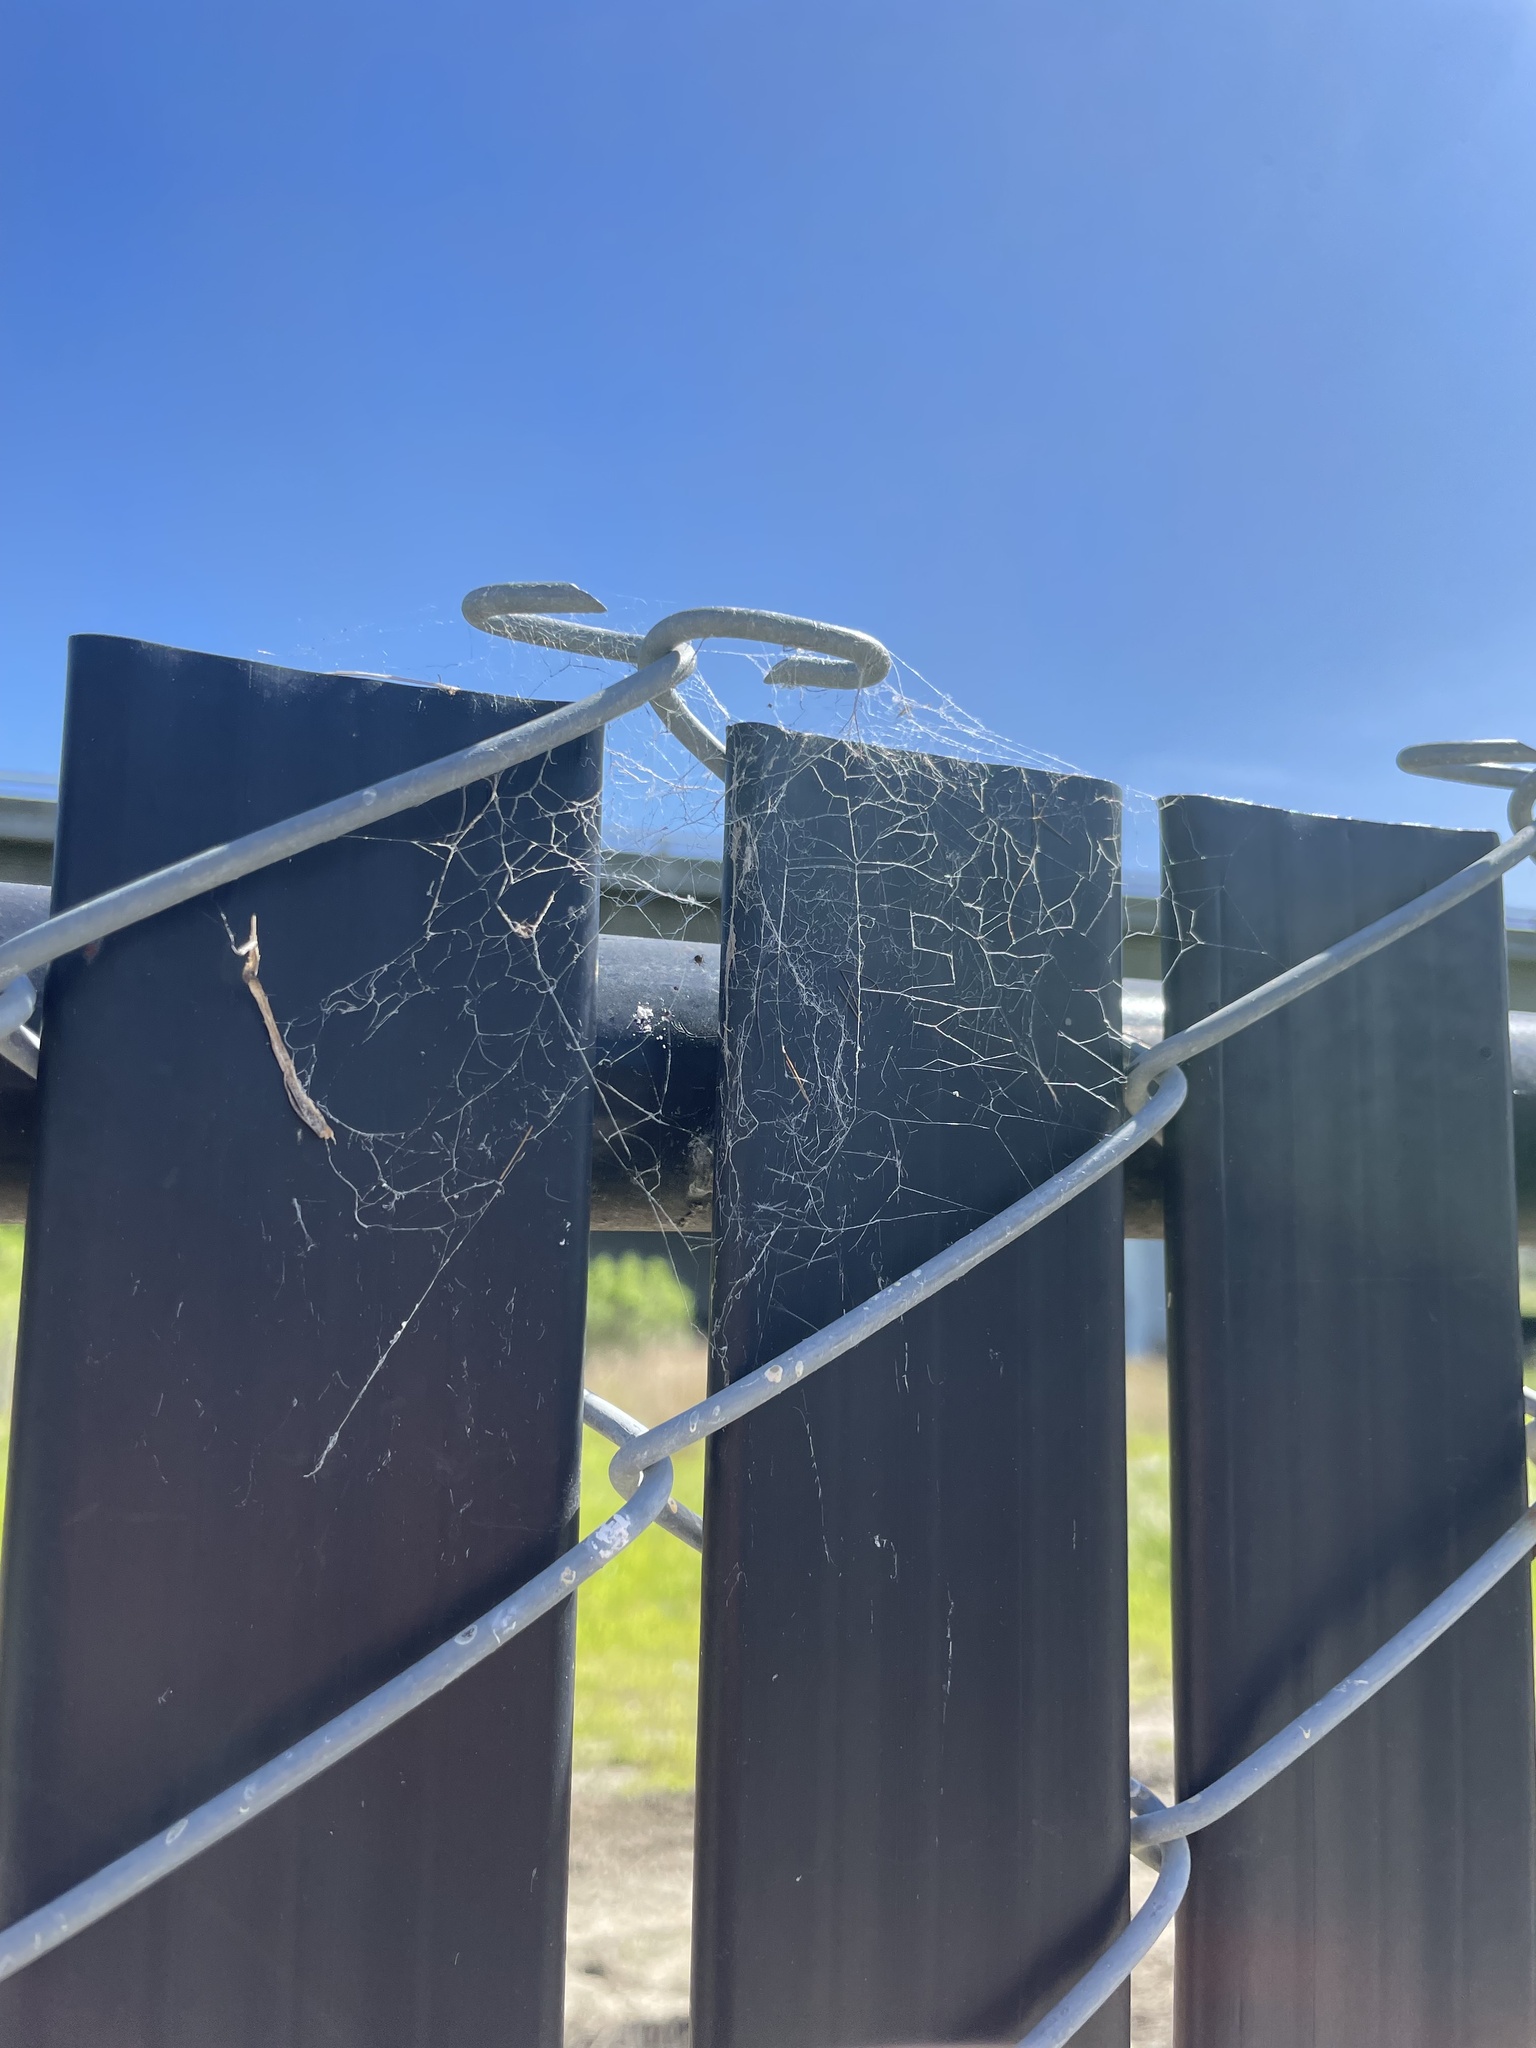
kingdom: Animalia
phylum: Arthropoda
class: Arachnida
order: Araneae
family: Desidae
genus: Badumna
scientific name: Badumna longinqua
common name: Gray house spider
